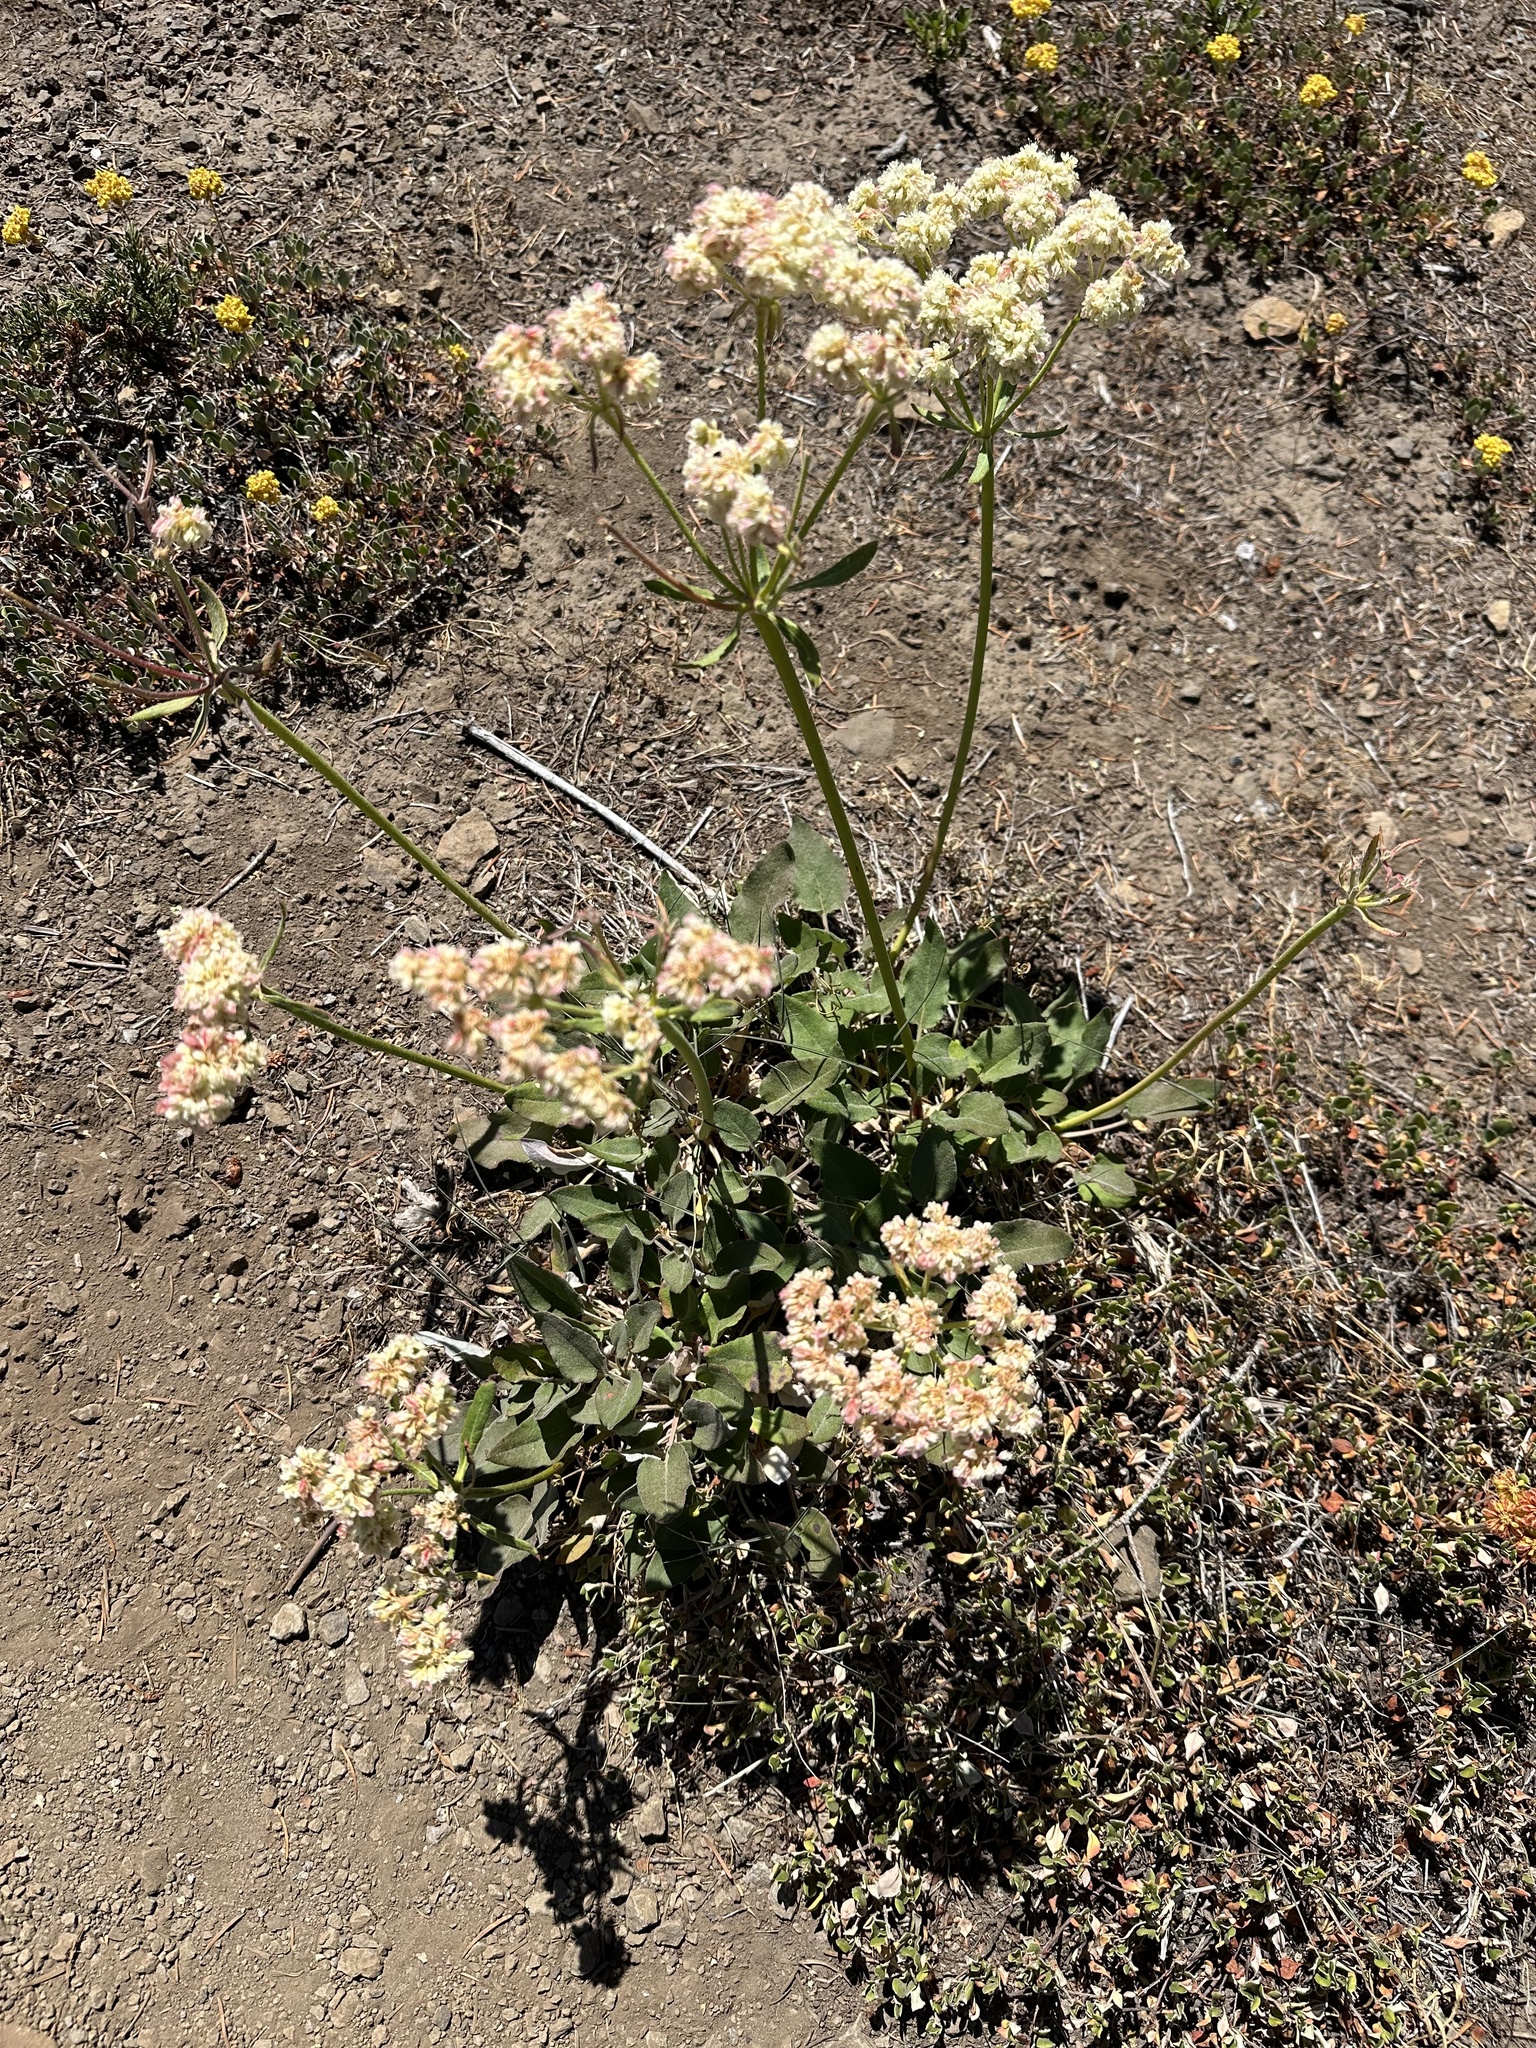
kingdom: Plantae
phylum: Tracheophyta
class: Magnoliopsida
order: Caryophyllales
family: Polygonaceae
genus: Eriogonum
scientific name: Eriogonum compositum
